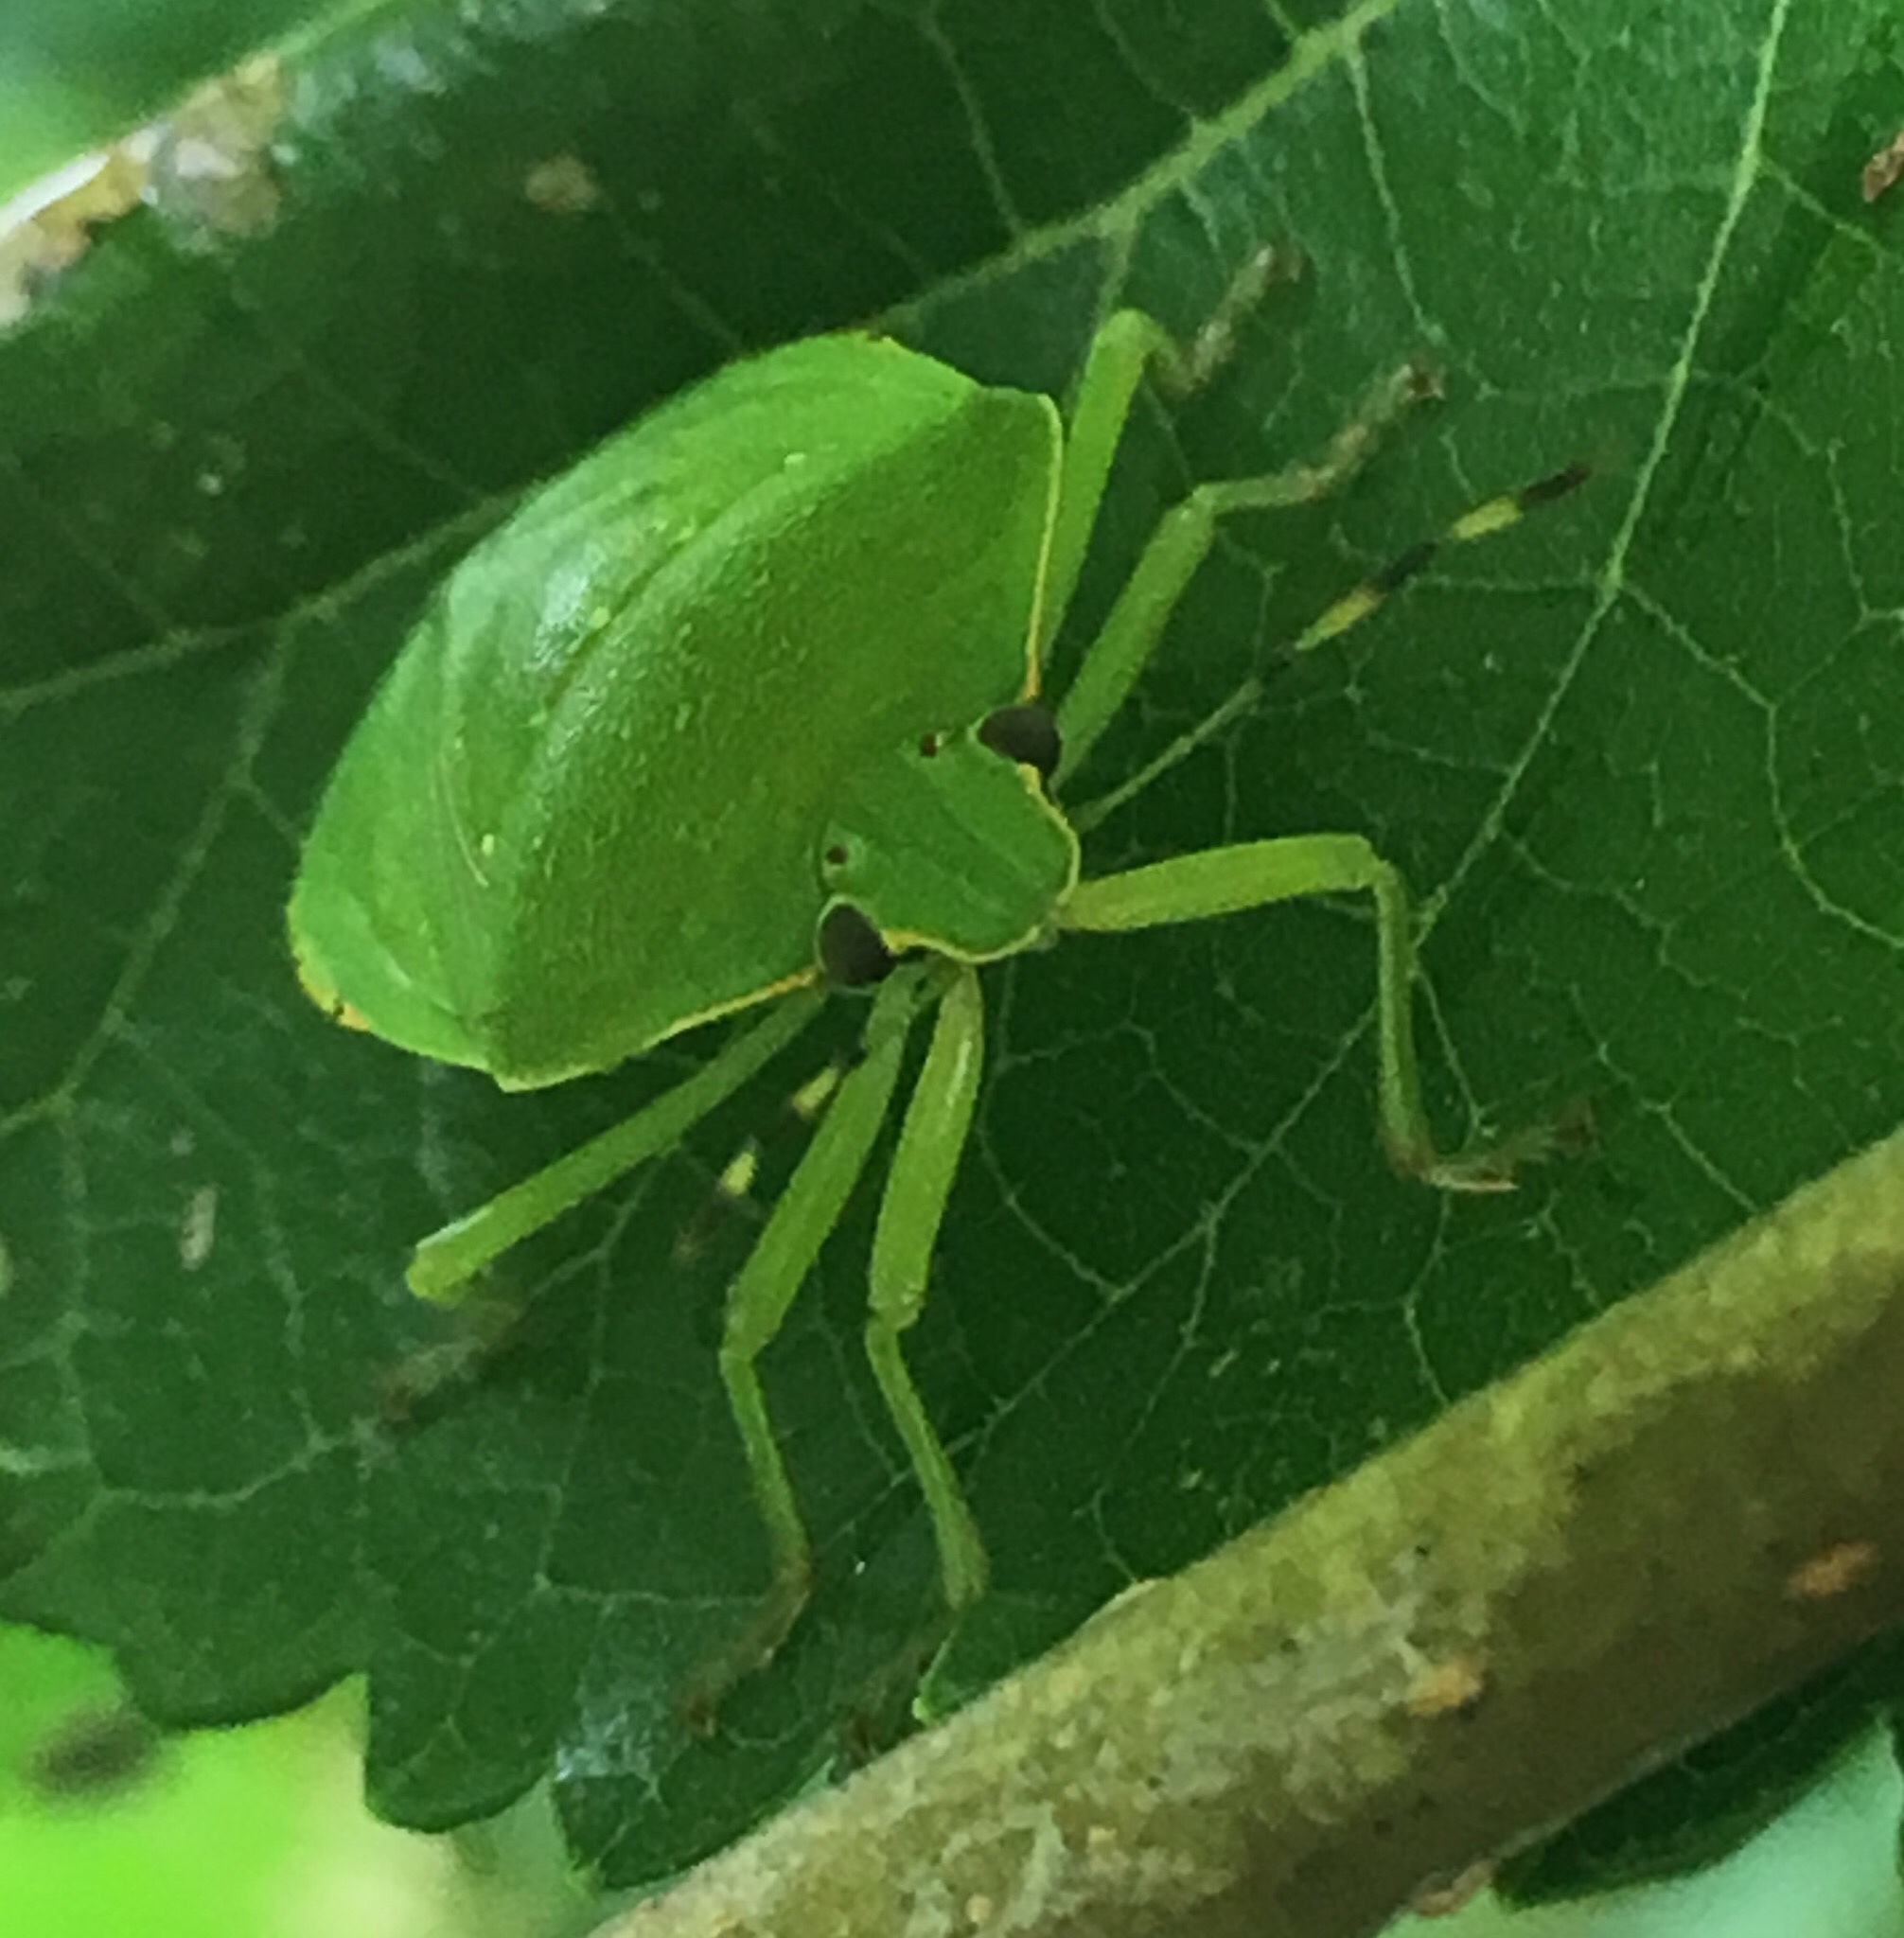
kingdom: Animalia
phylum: Arthropoda
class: Insecta
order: Hemiptera
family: Pentatomidae
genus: Chinavia
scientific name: Chinavia hilaris
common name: Green stink bug
